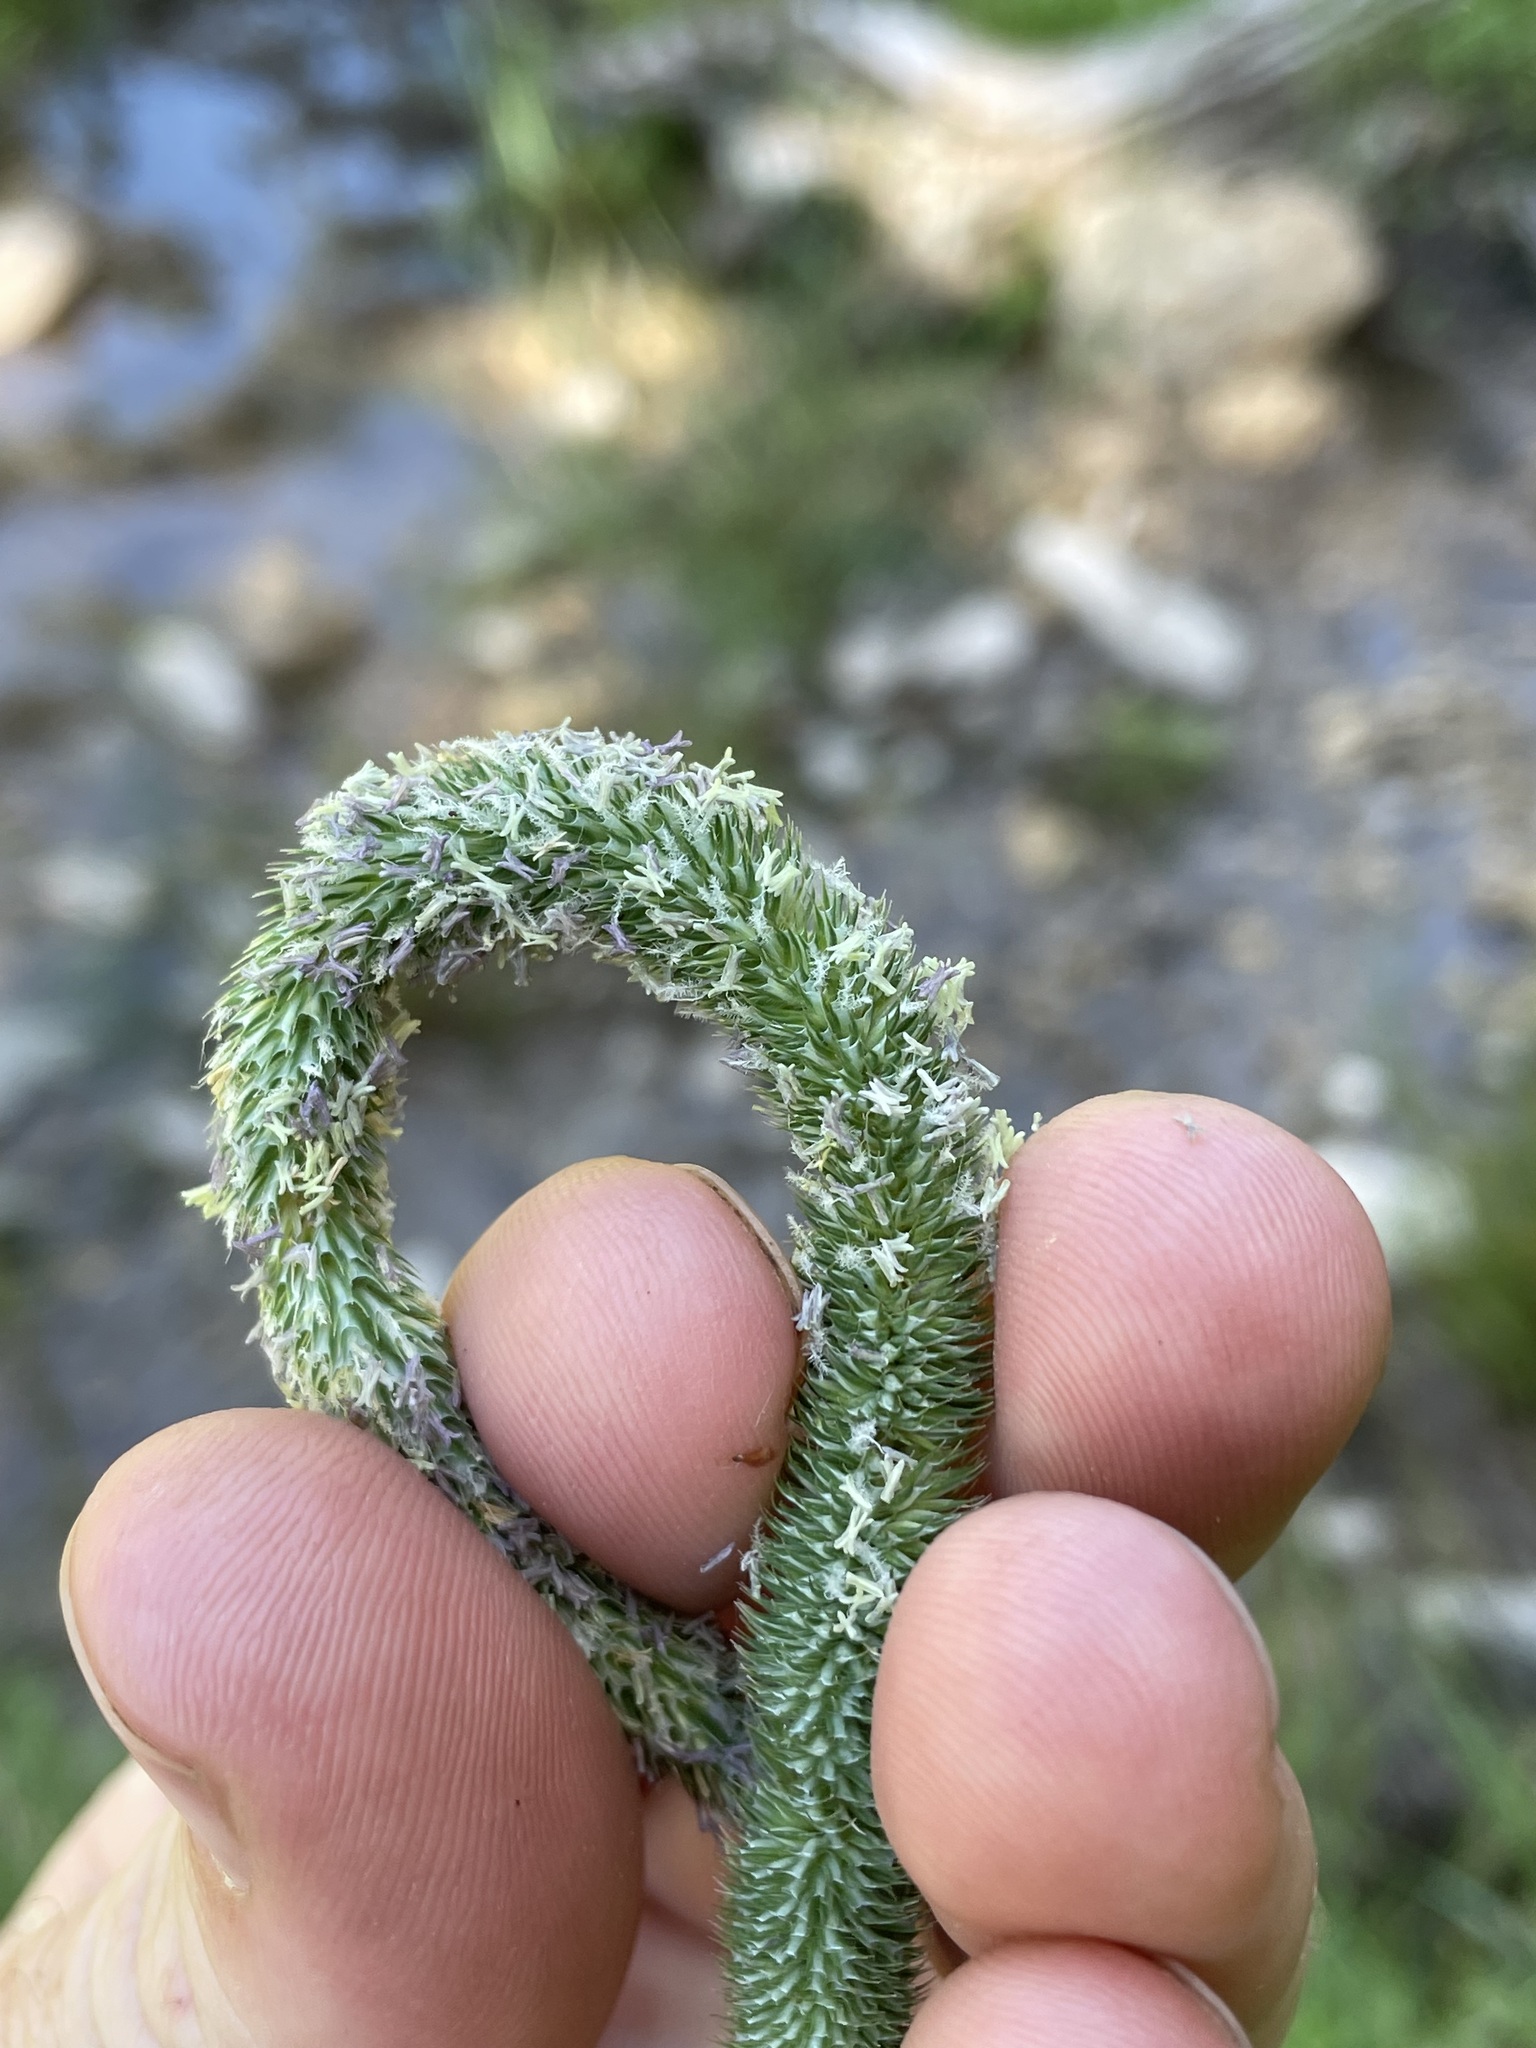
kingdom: Plantae
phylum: Tracheophyta
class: Liliopsida
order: Poales
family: Poaceae
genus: Phleum
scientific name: Phleum pratense
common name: Timothy grass
